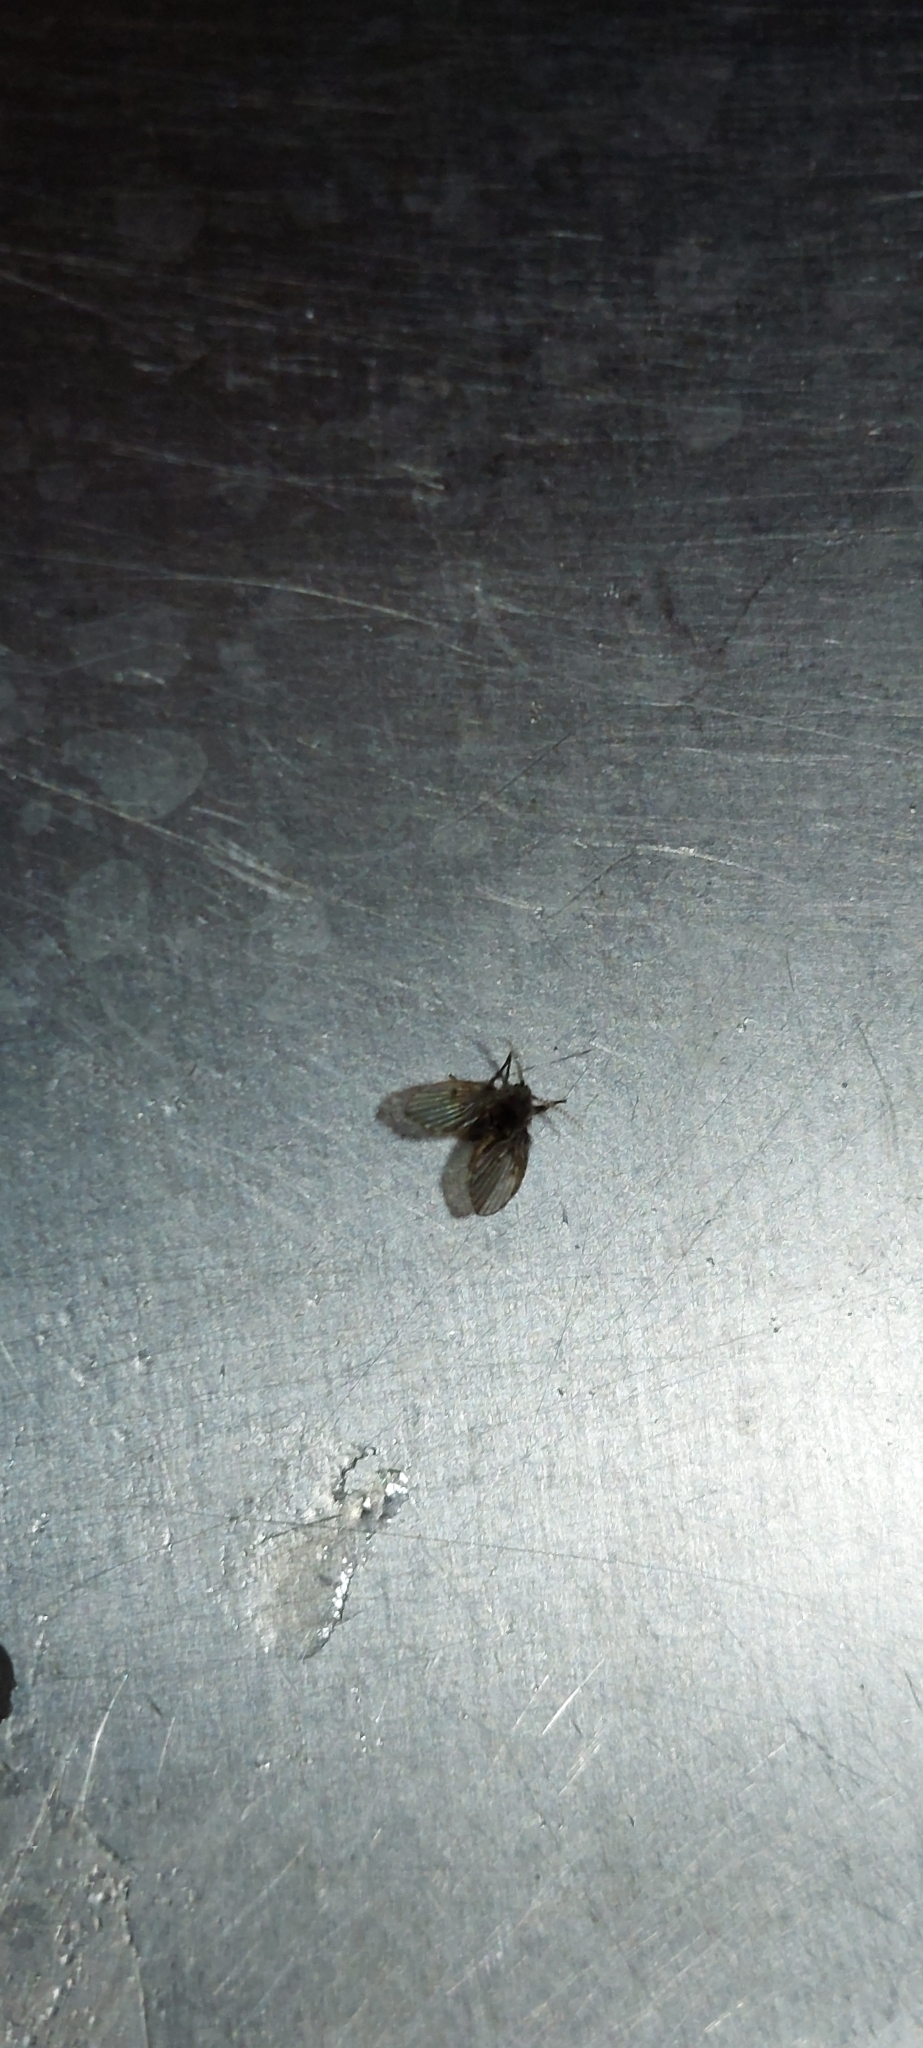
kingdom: Animalia
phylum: Arthropoda
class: Insecta
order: Diptera
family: Psychodidae
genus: Clogmia
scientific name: Clogmia albipunctatus
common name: White-spotted moth fly
